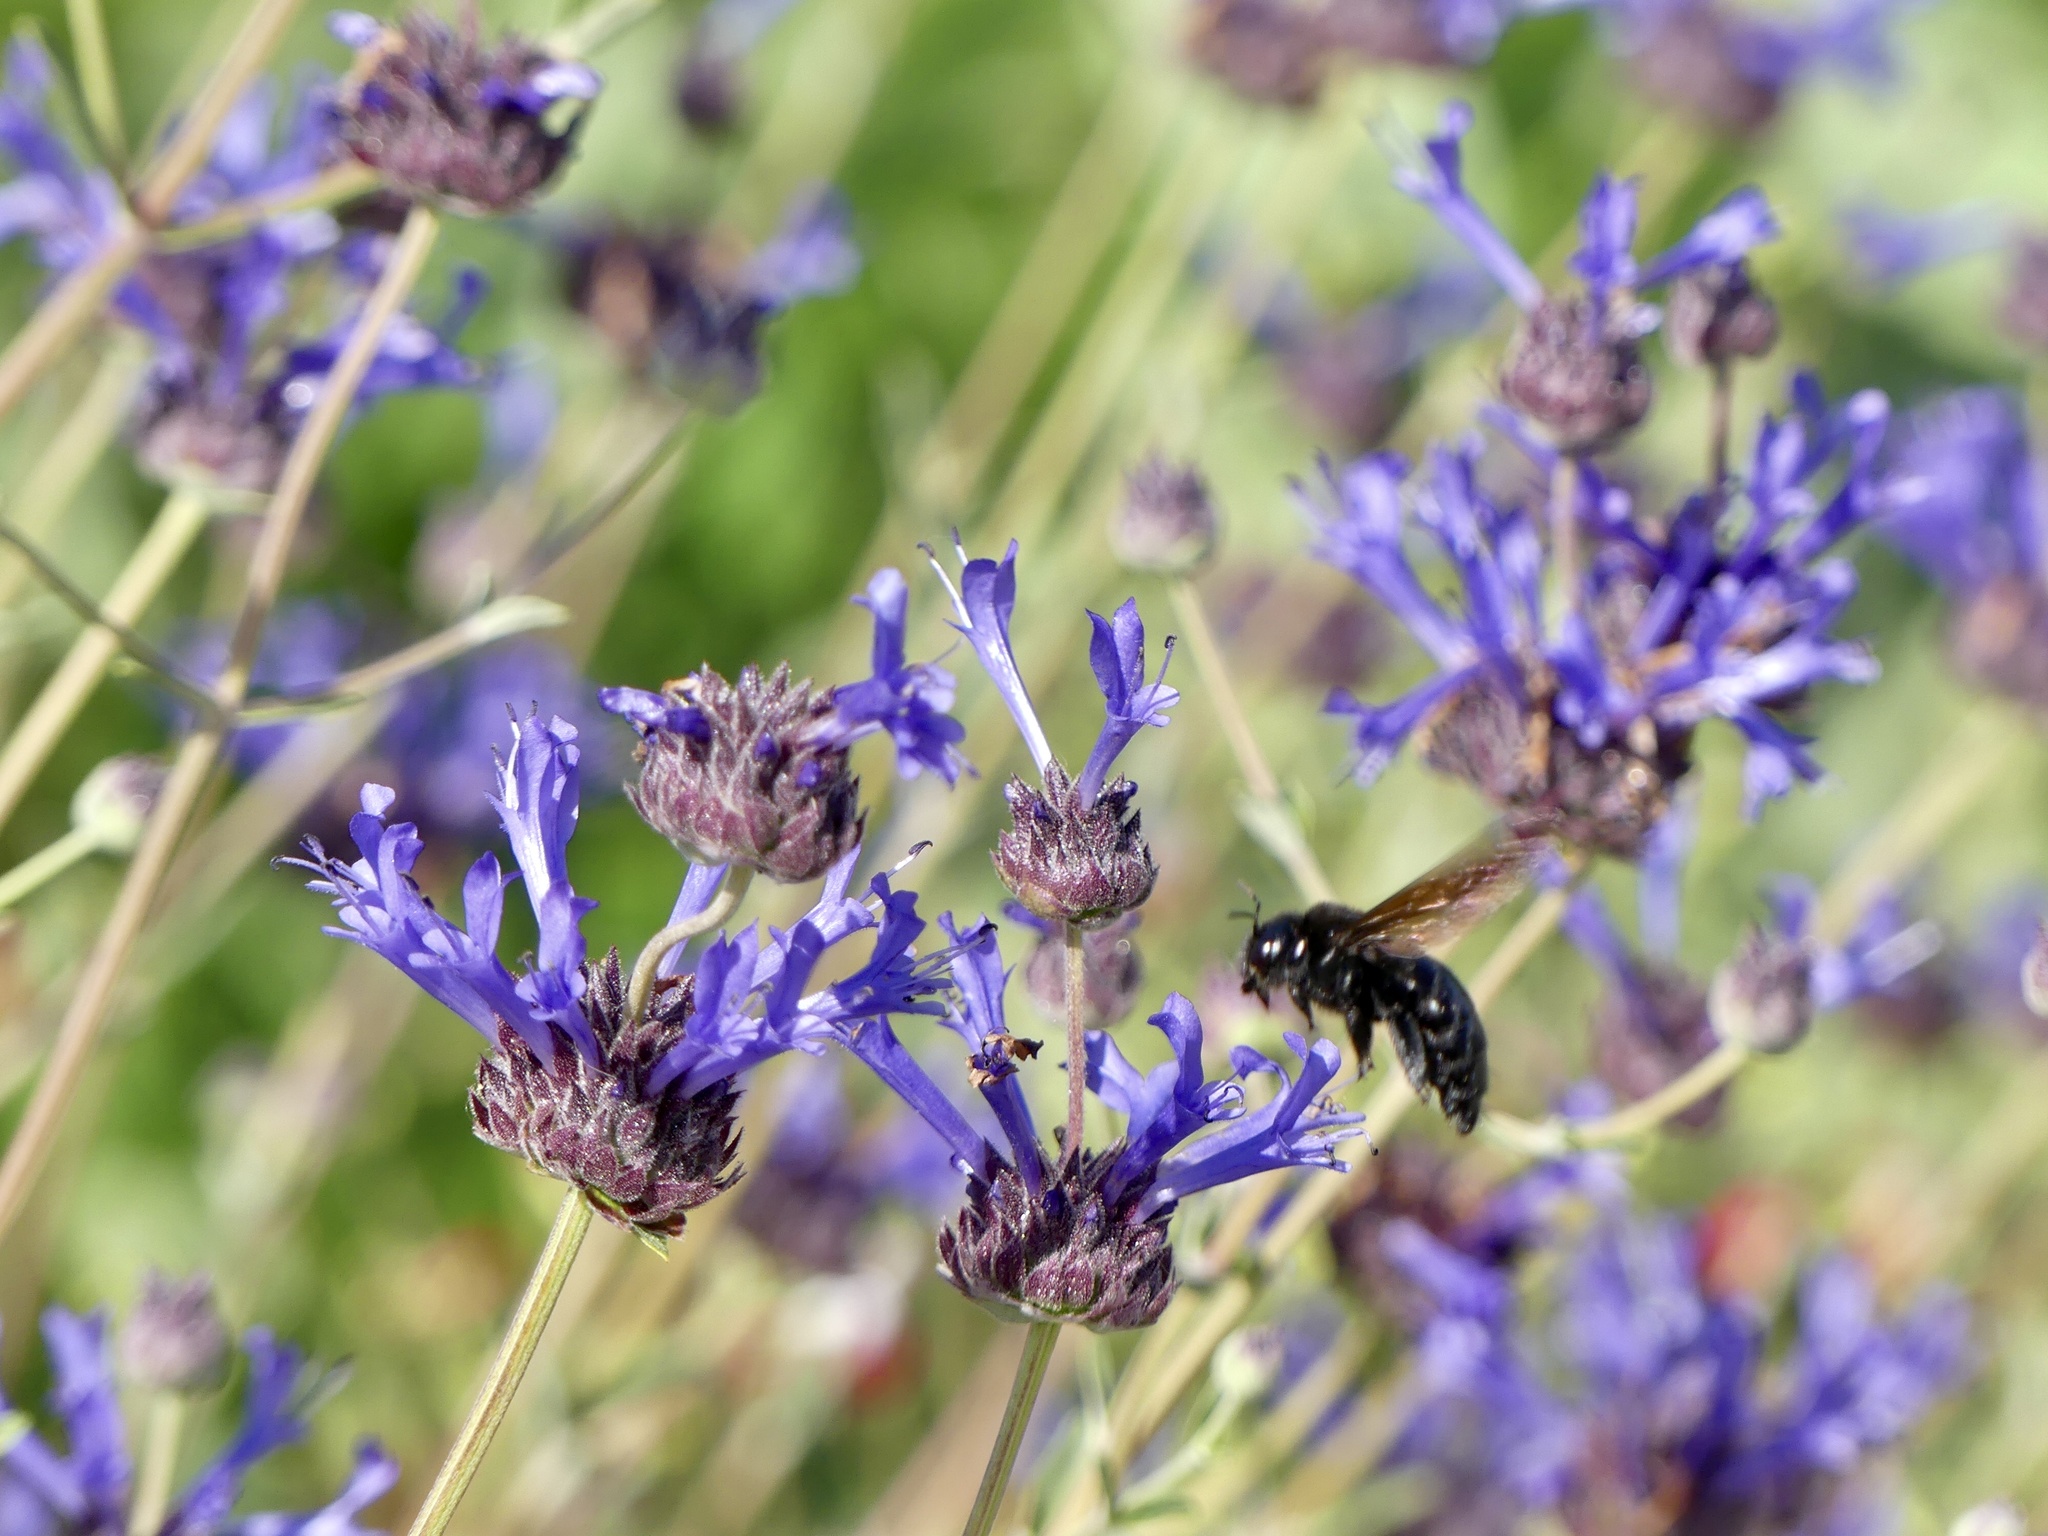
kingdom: Animalia
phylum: Arthropoda
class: Insecta
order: Hymenoptera
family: Apidae
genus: Xylocopa
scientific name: Xylocopa sonorina
